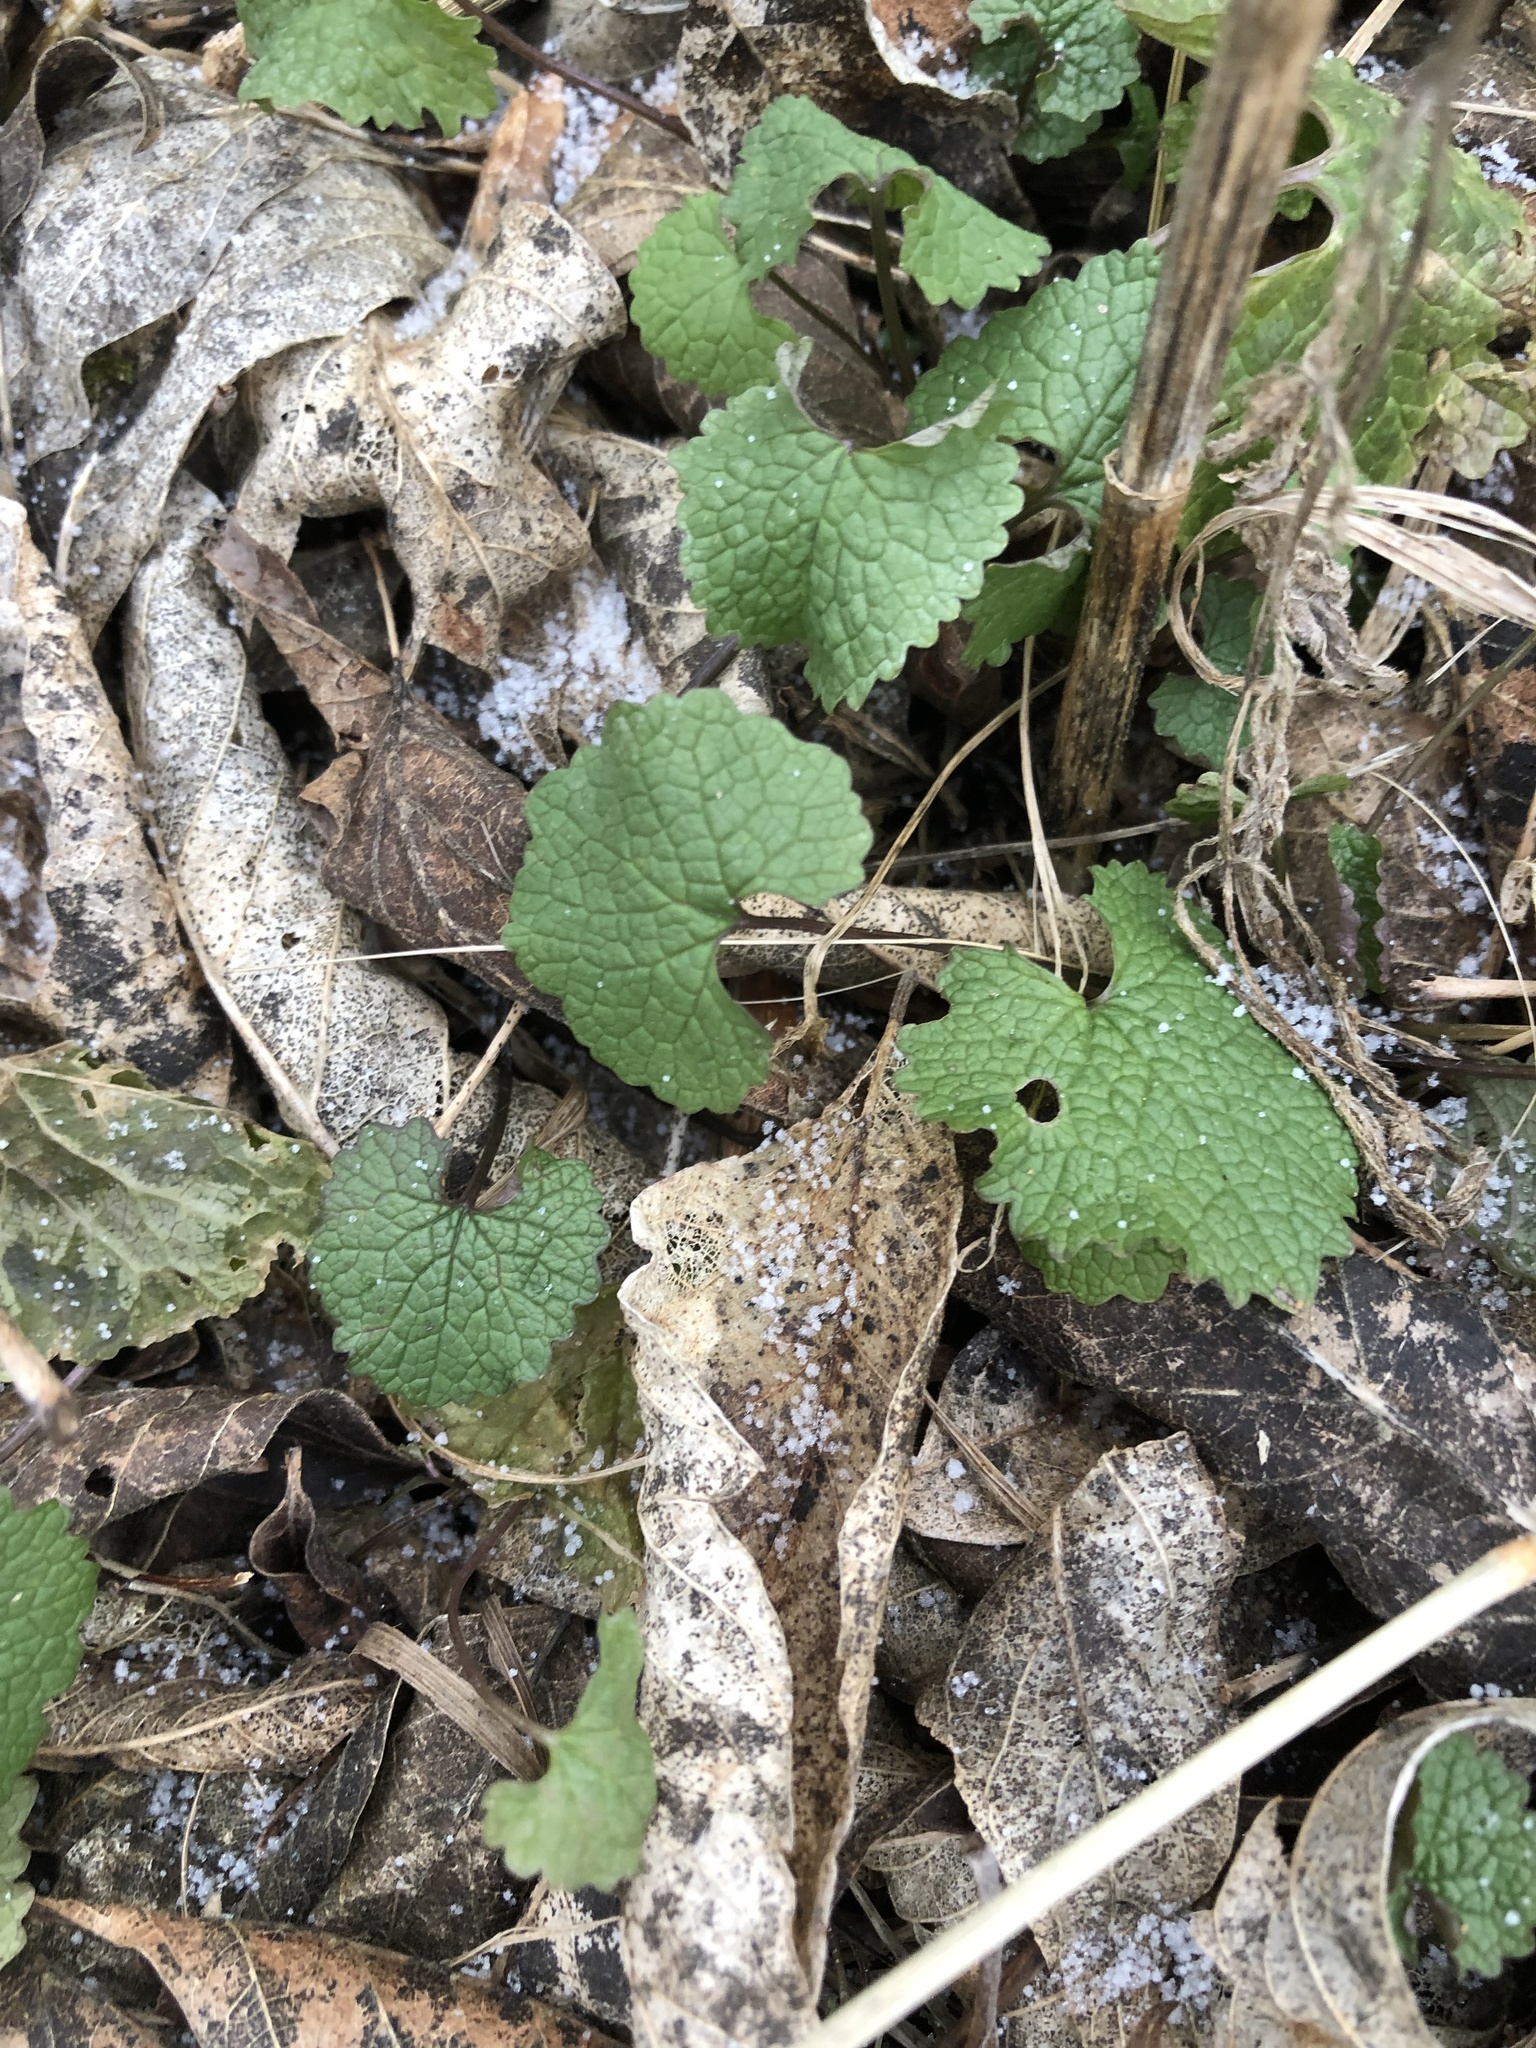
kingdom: Plantae
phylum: Tracheophyta
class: Magnoliopsida
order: Brassicales
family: Brassicaceae
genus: Alliaria
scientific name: Alliaria petiolata
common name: Garlic mustard
